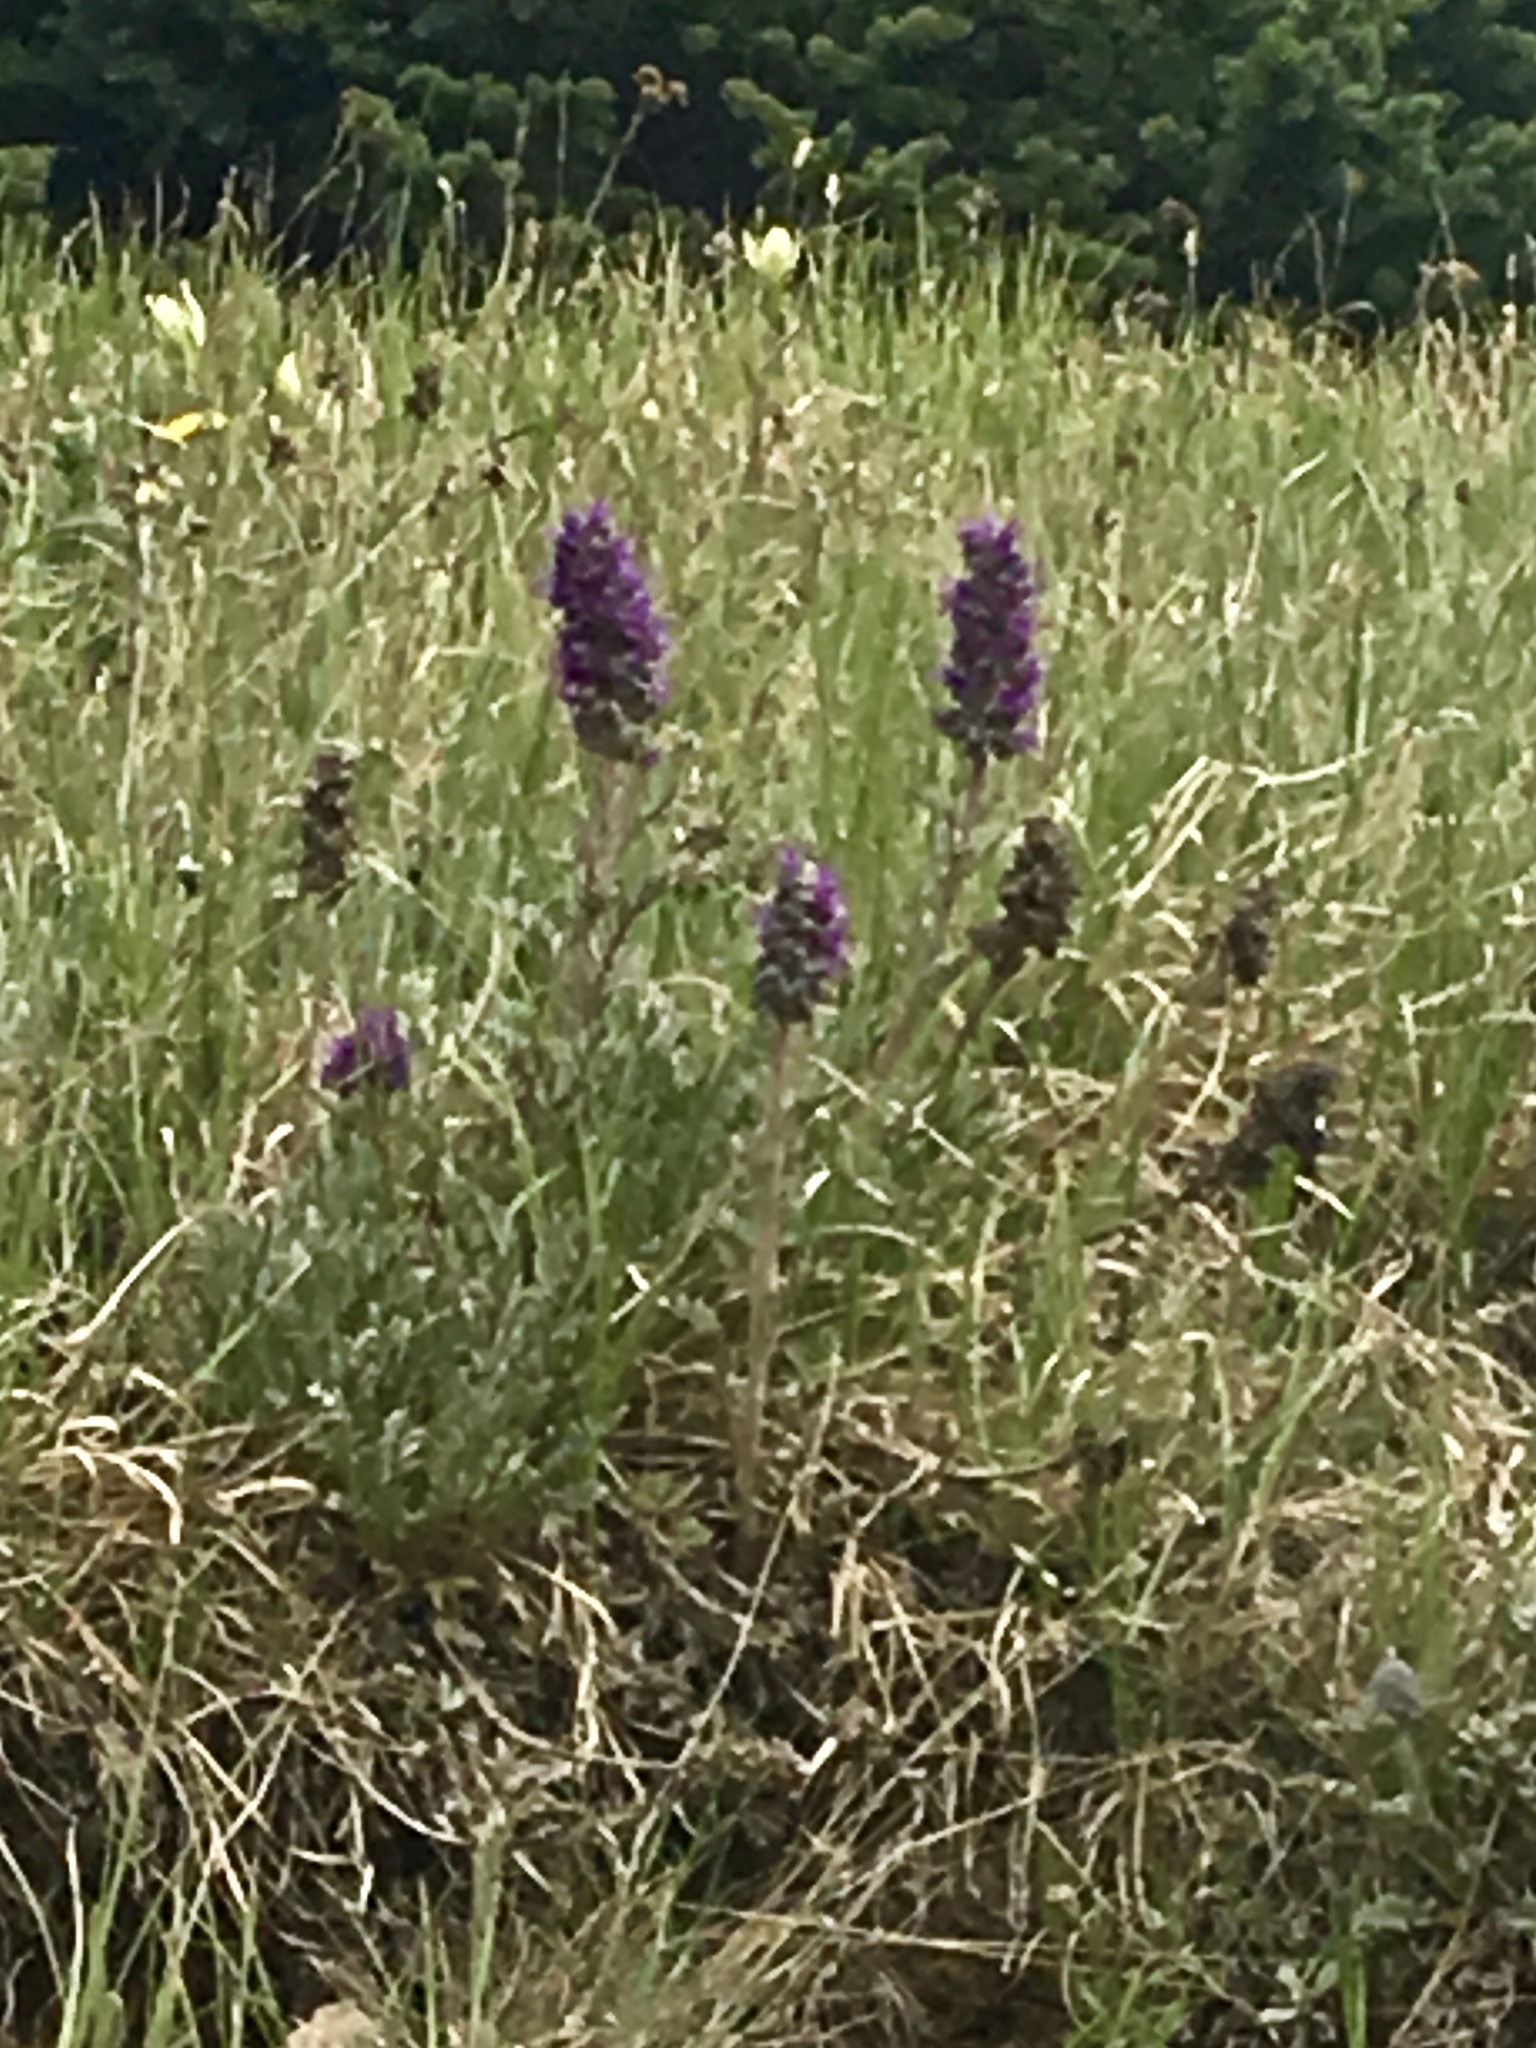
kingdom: Plantae
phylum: Tracheophyta
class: Magnoliopsida
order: Boraginales
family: Hydrophyllaceae
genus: Phacelia
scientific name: Phacelia sericea
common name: Silky phacelia
